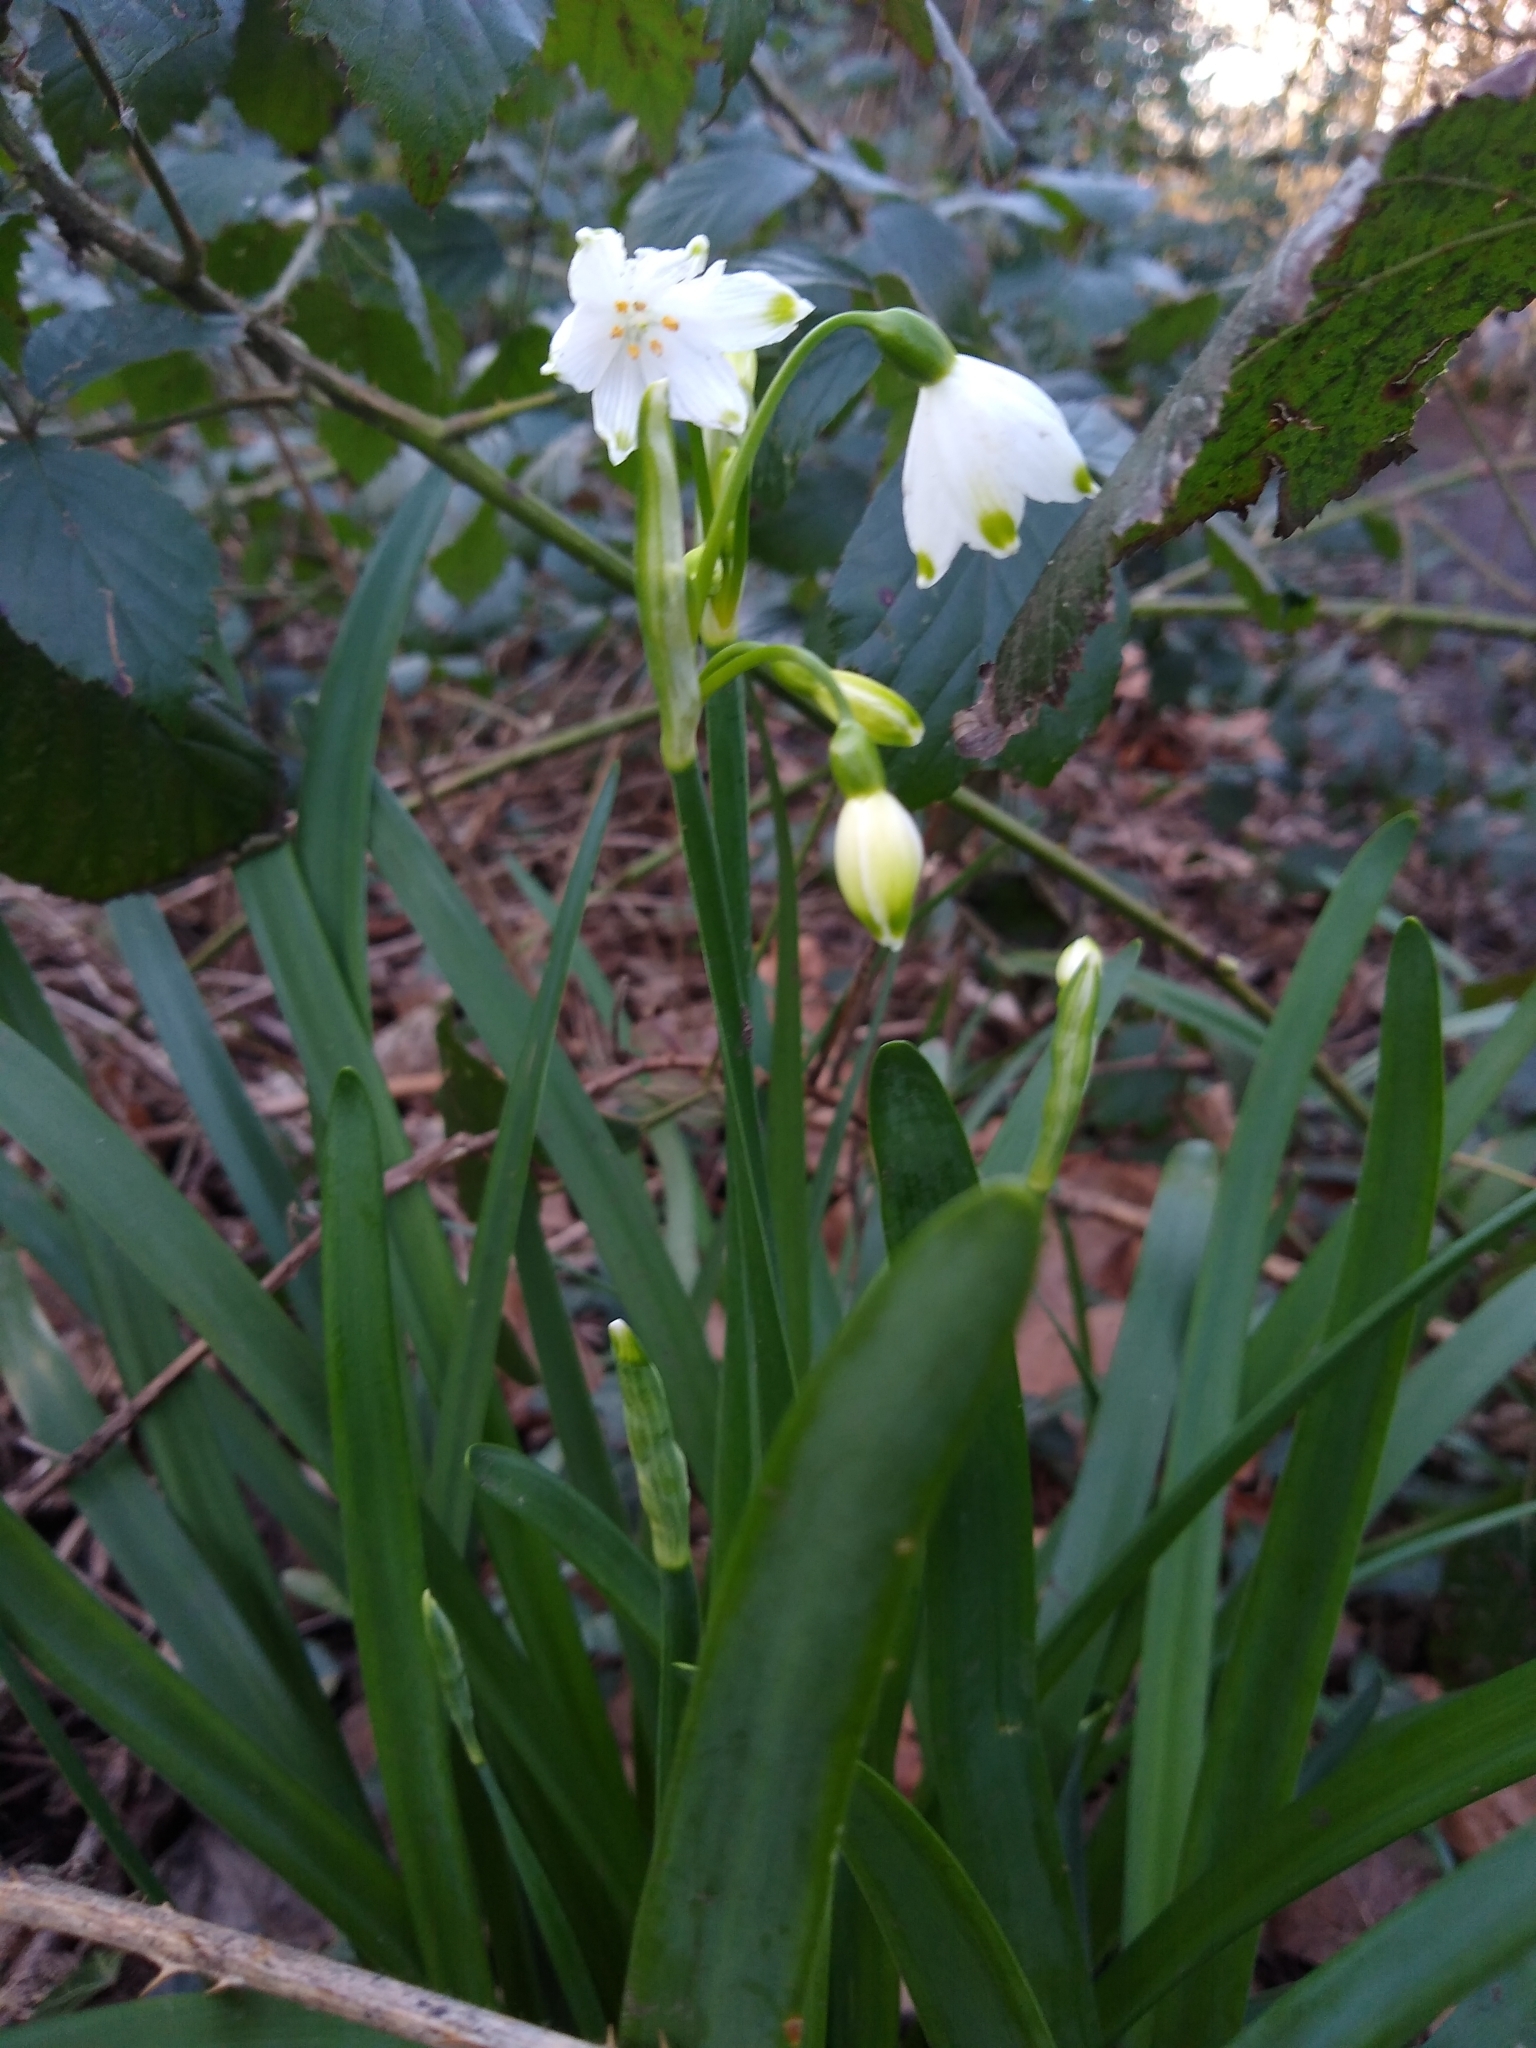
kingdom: Plantae
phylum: Tracheophyta
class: Liliopsida
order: Asparagales
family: Amaryllidaceae
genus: Leucojum
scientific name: Leucojum aestivum
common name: Summer snowflake
